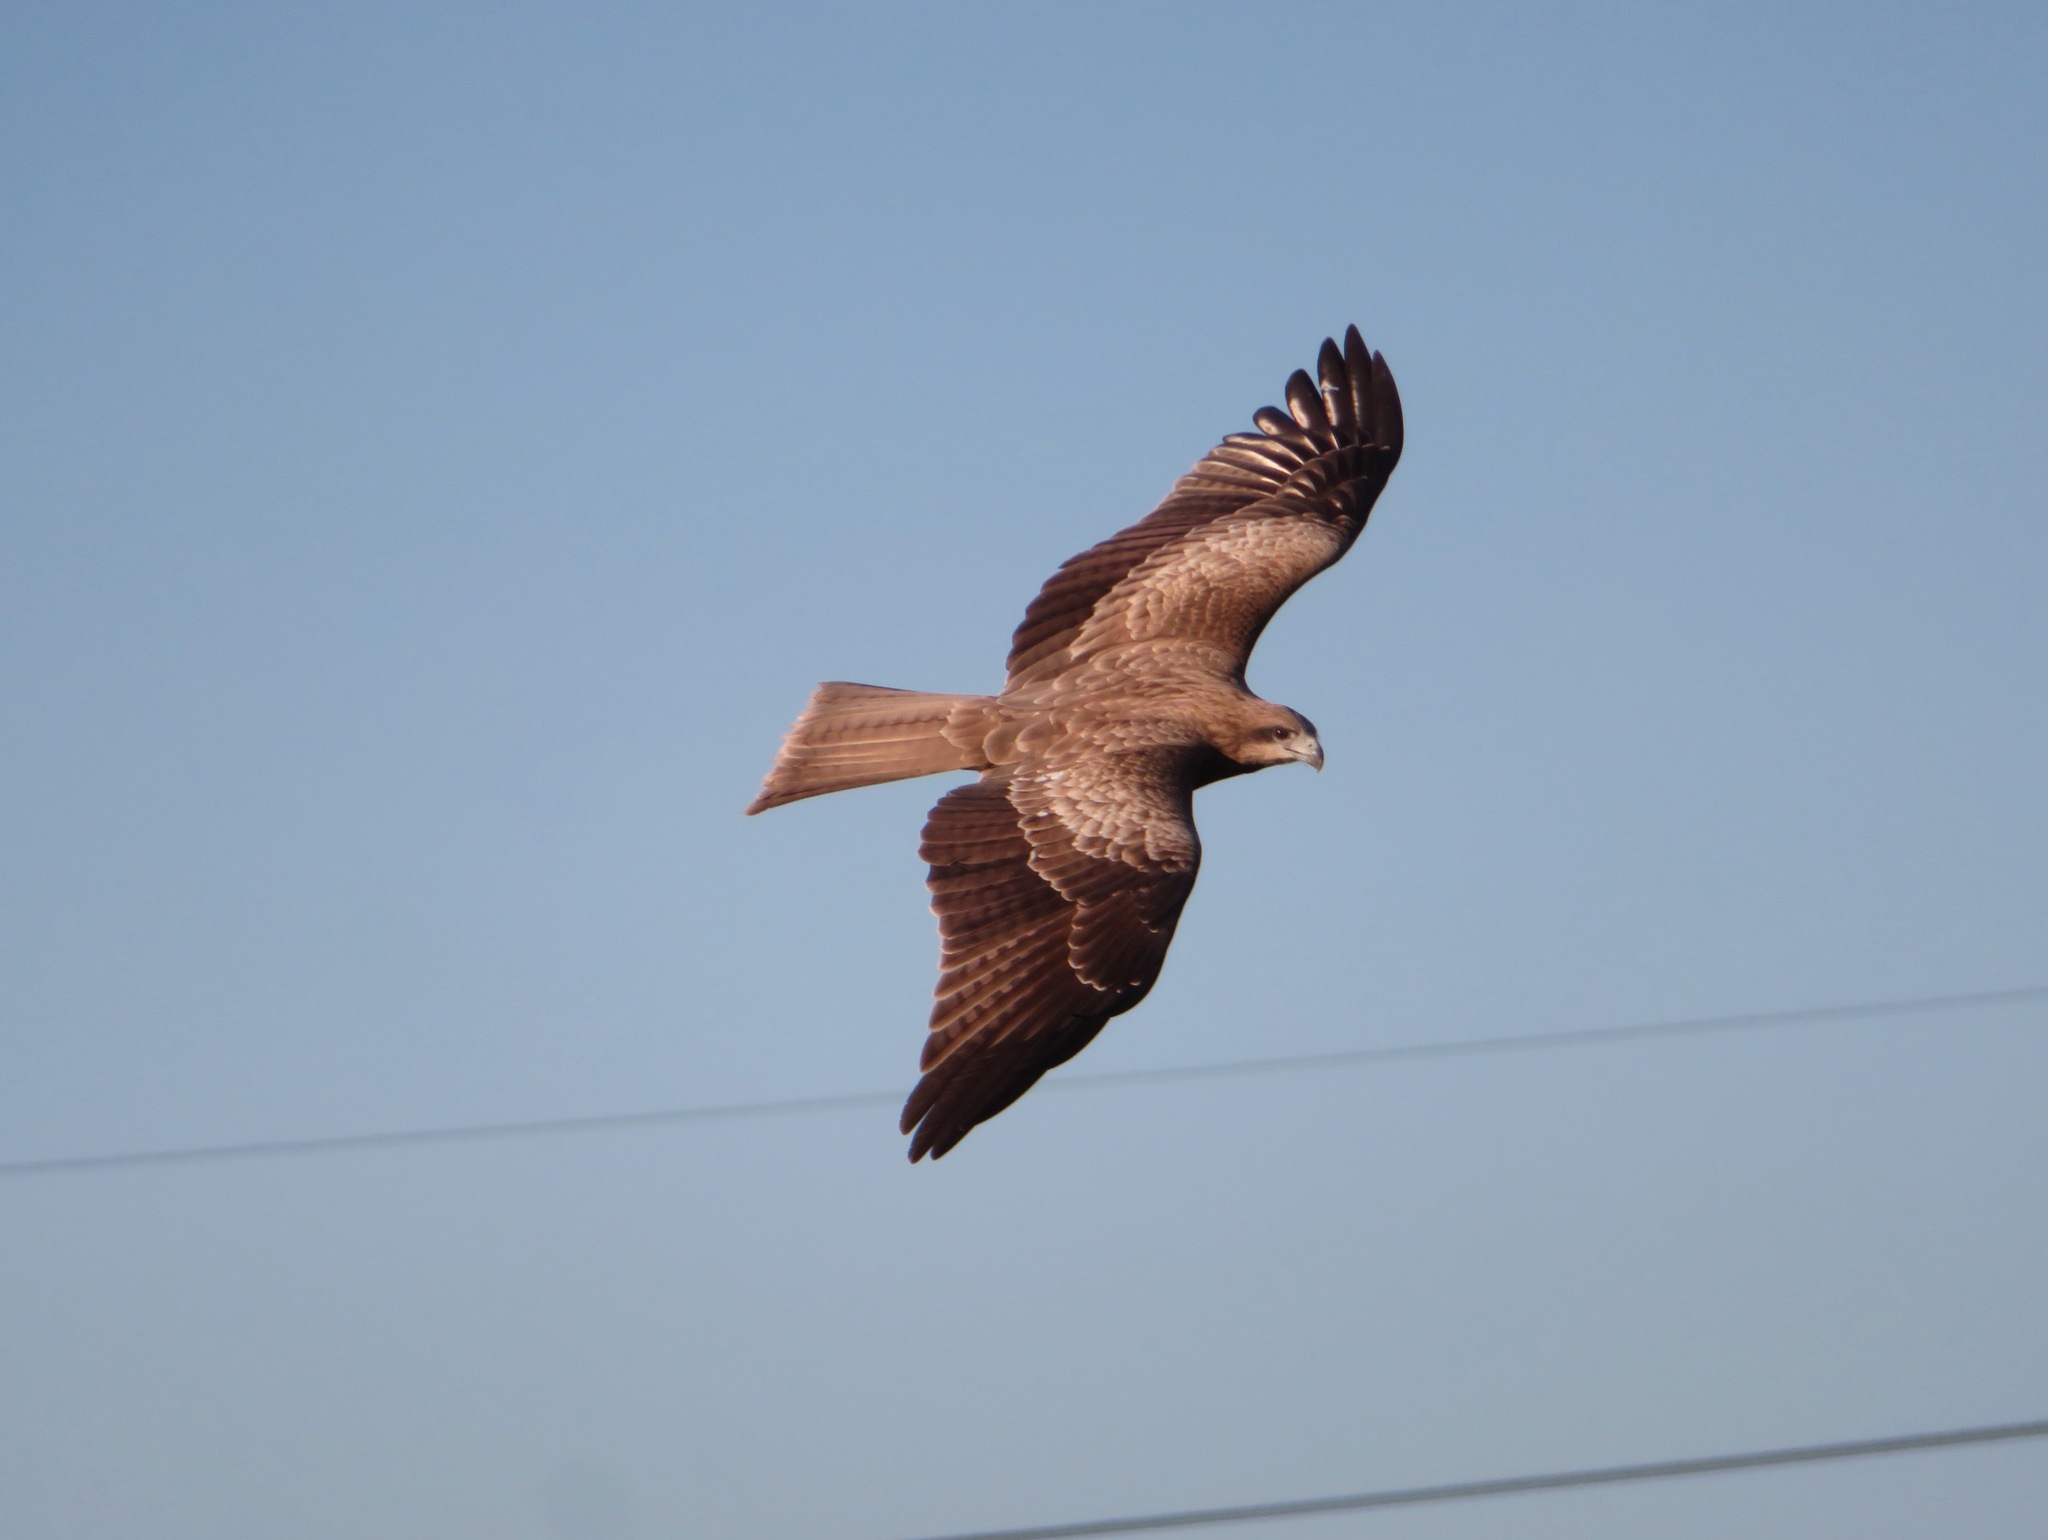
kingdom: Animalia
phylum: Chordata
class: Aves
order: Accipitriformes
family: Accipitridae
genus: Milvus
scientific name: Milvus migrans
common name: Black kite
